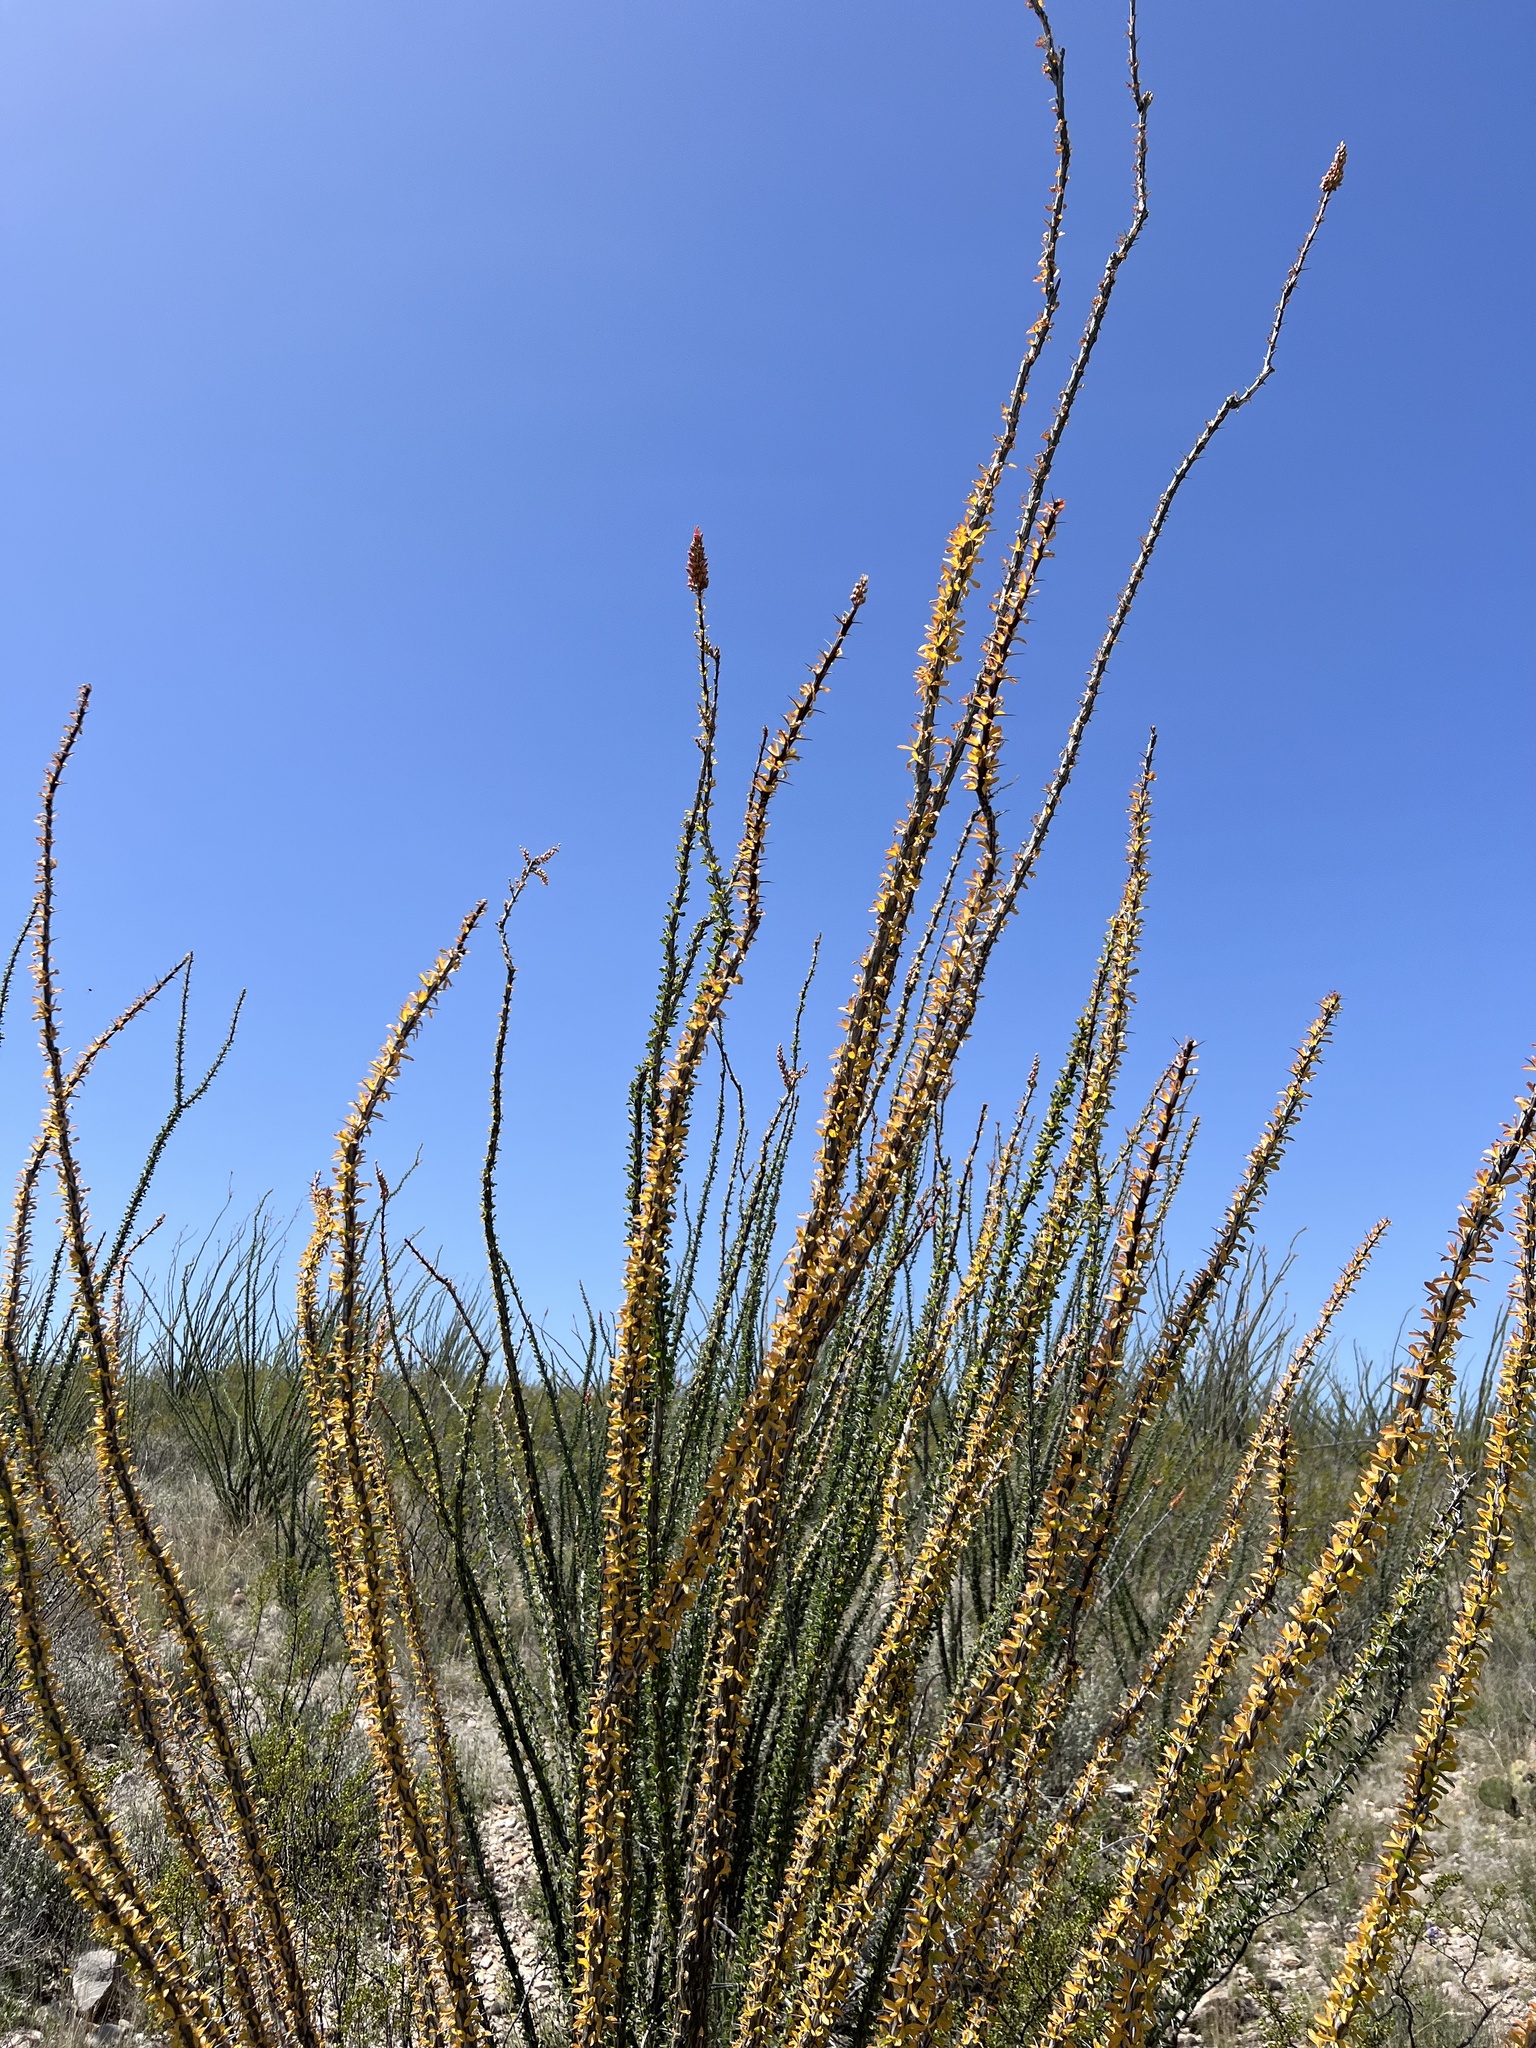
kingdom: Plantae
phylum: Tracheophyta
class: Magnoliopsida
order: Ericales
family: Fouquieriaceae
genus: Fouquieria
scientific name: Fouquieria splendens
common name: Vine-cactus
